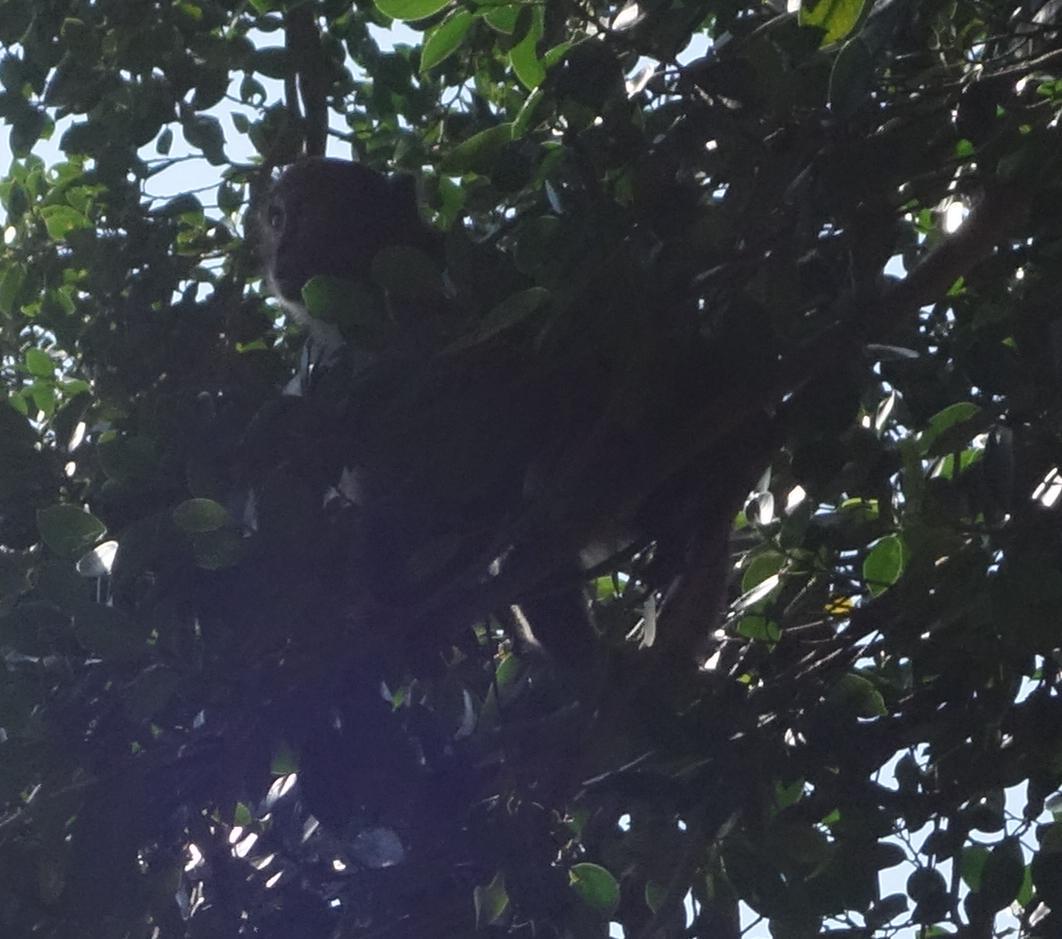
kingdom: Animalia
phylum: Chordata
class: Mammalia
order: Primates
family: Cercopithecidae
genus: Macaca
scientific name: Macaca cyclopis
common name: Formosan rock macaque
